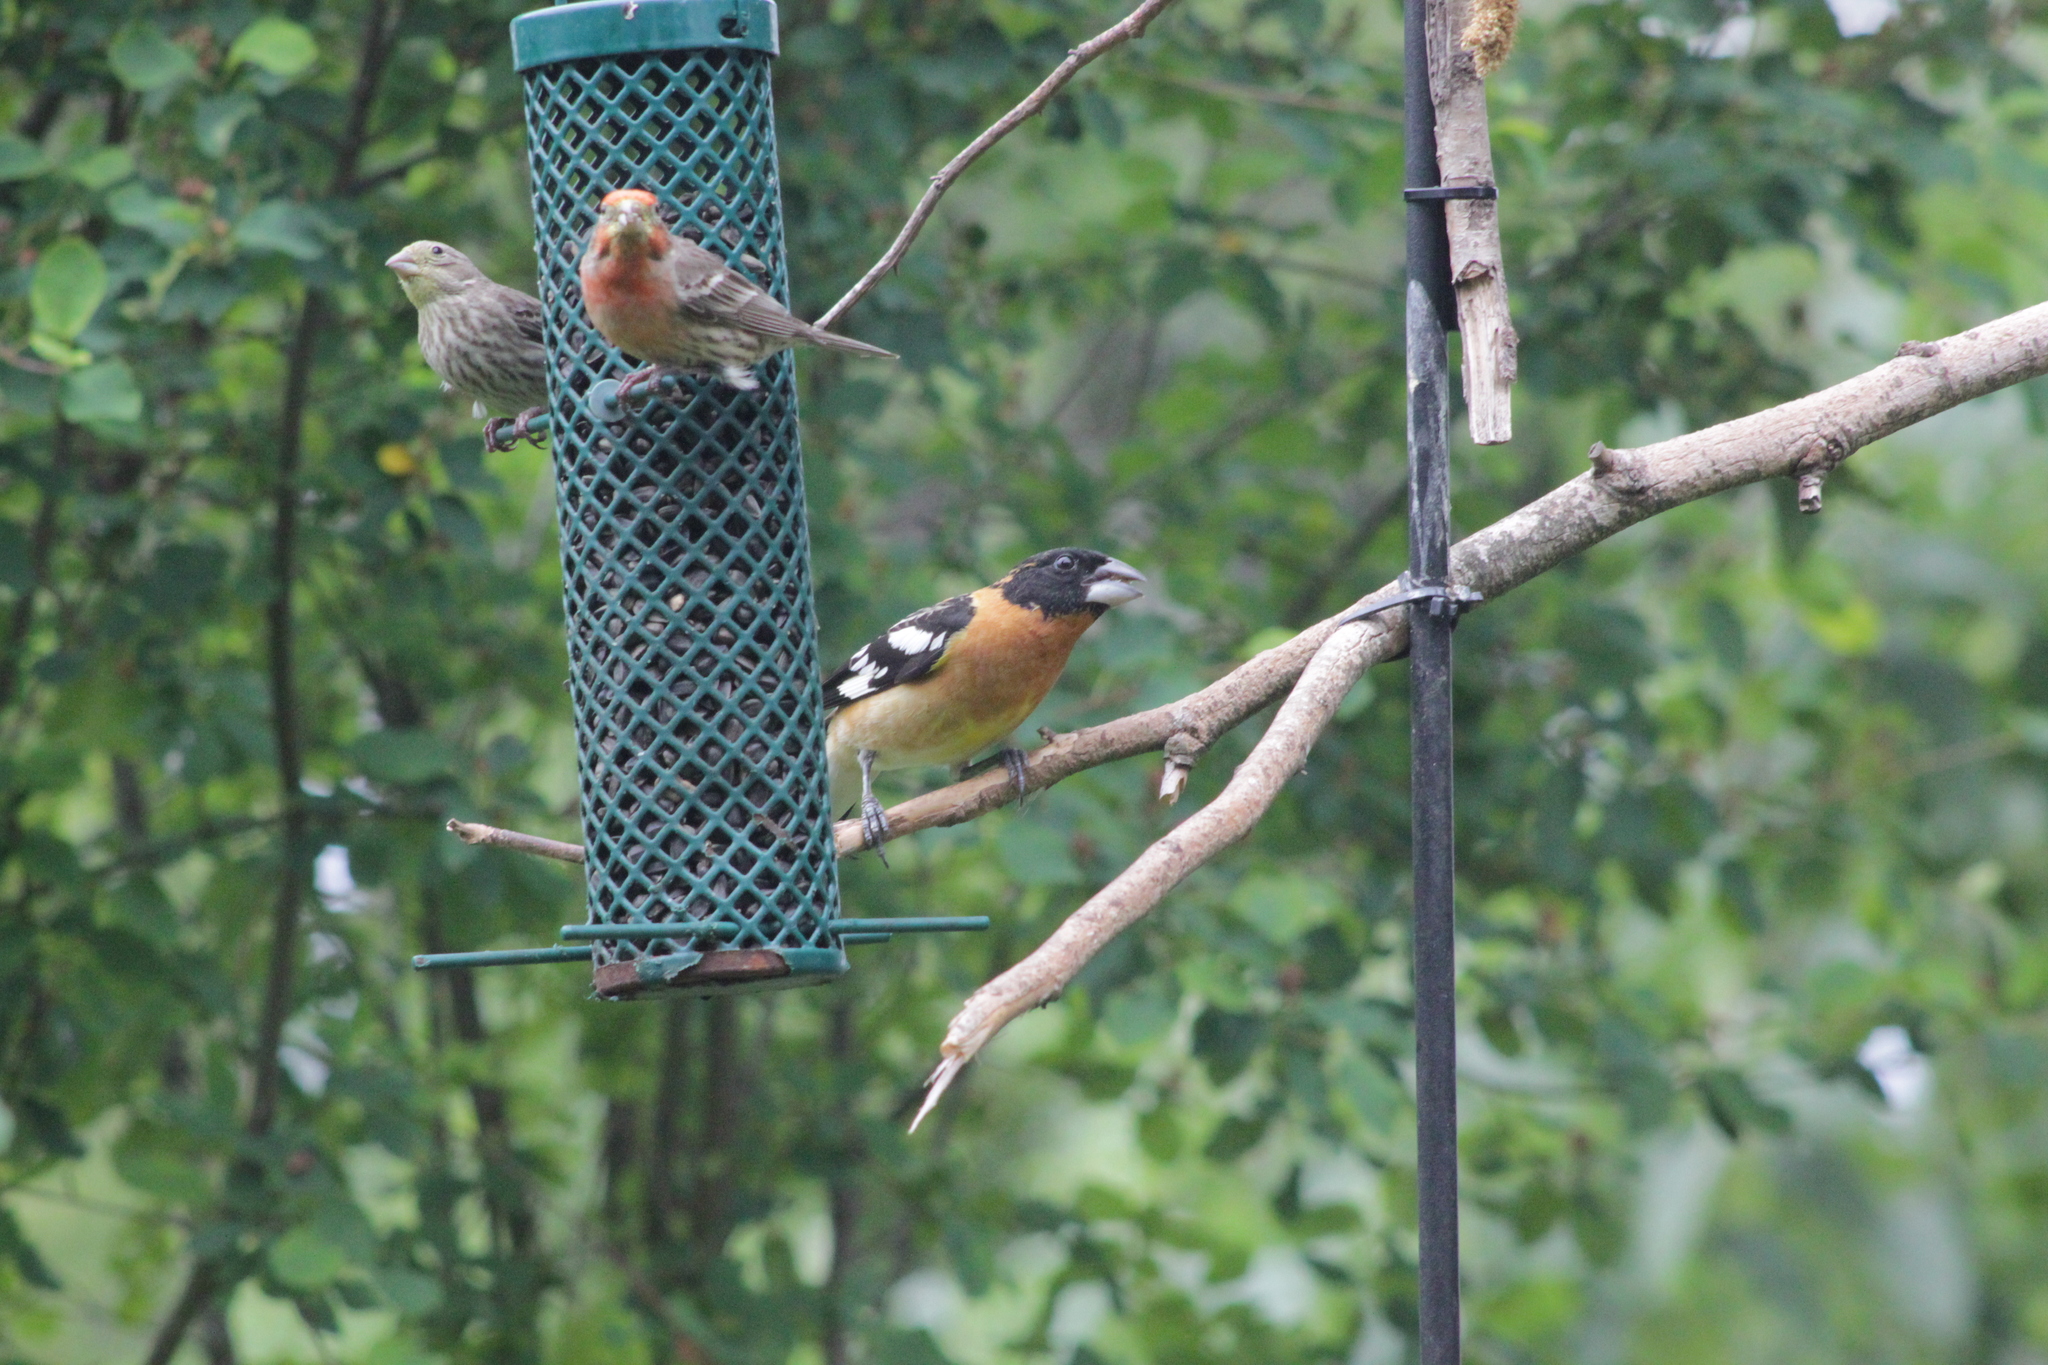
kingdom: Animalia
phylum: Chordata
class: Aves
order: Passeriformes
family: Cardinalidae
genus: Pheucticus
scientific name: Pheucticus melanocephalus
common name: Black-headed grosbeak
